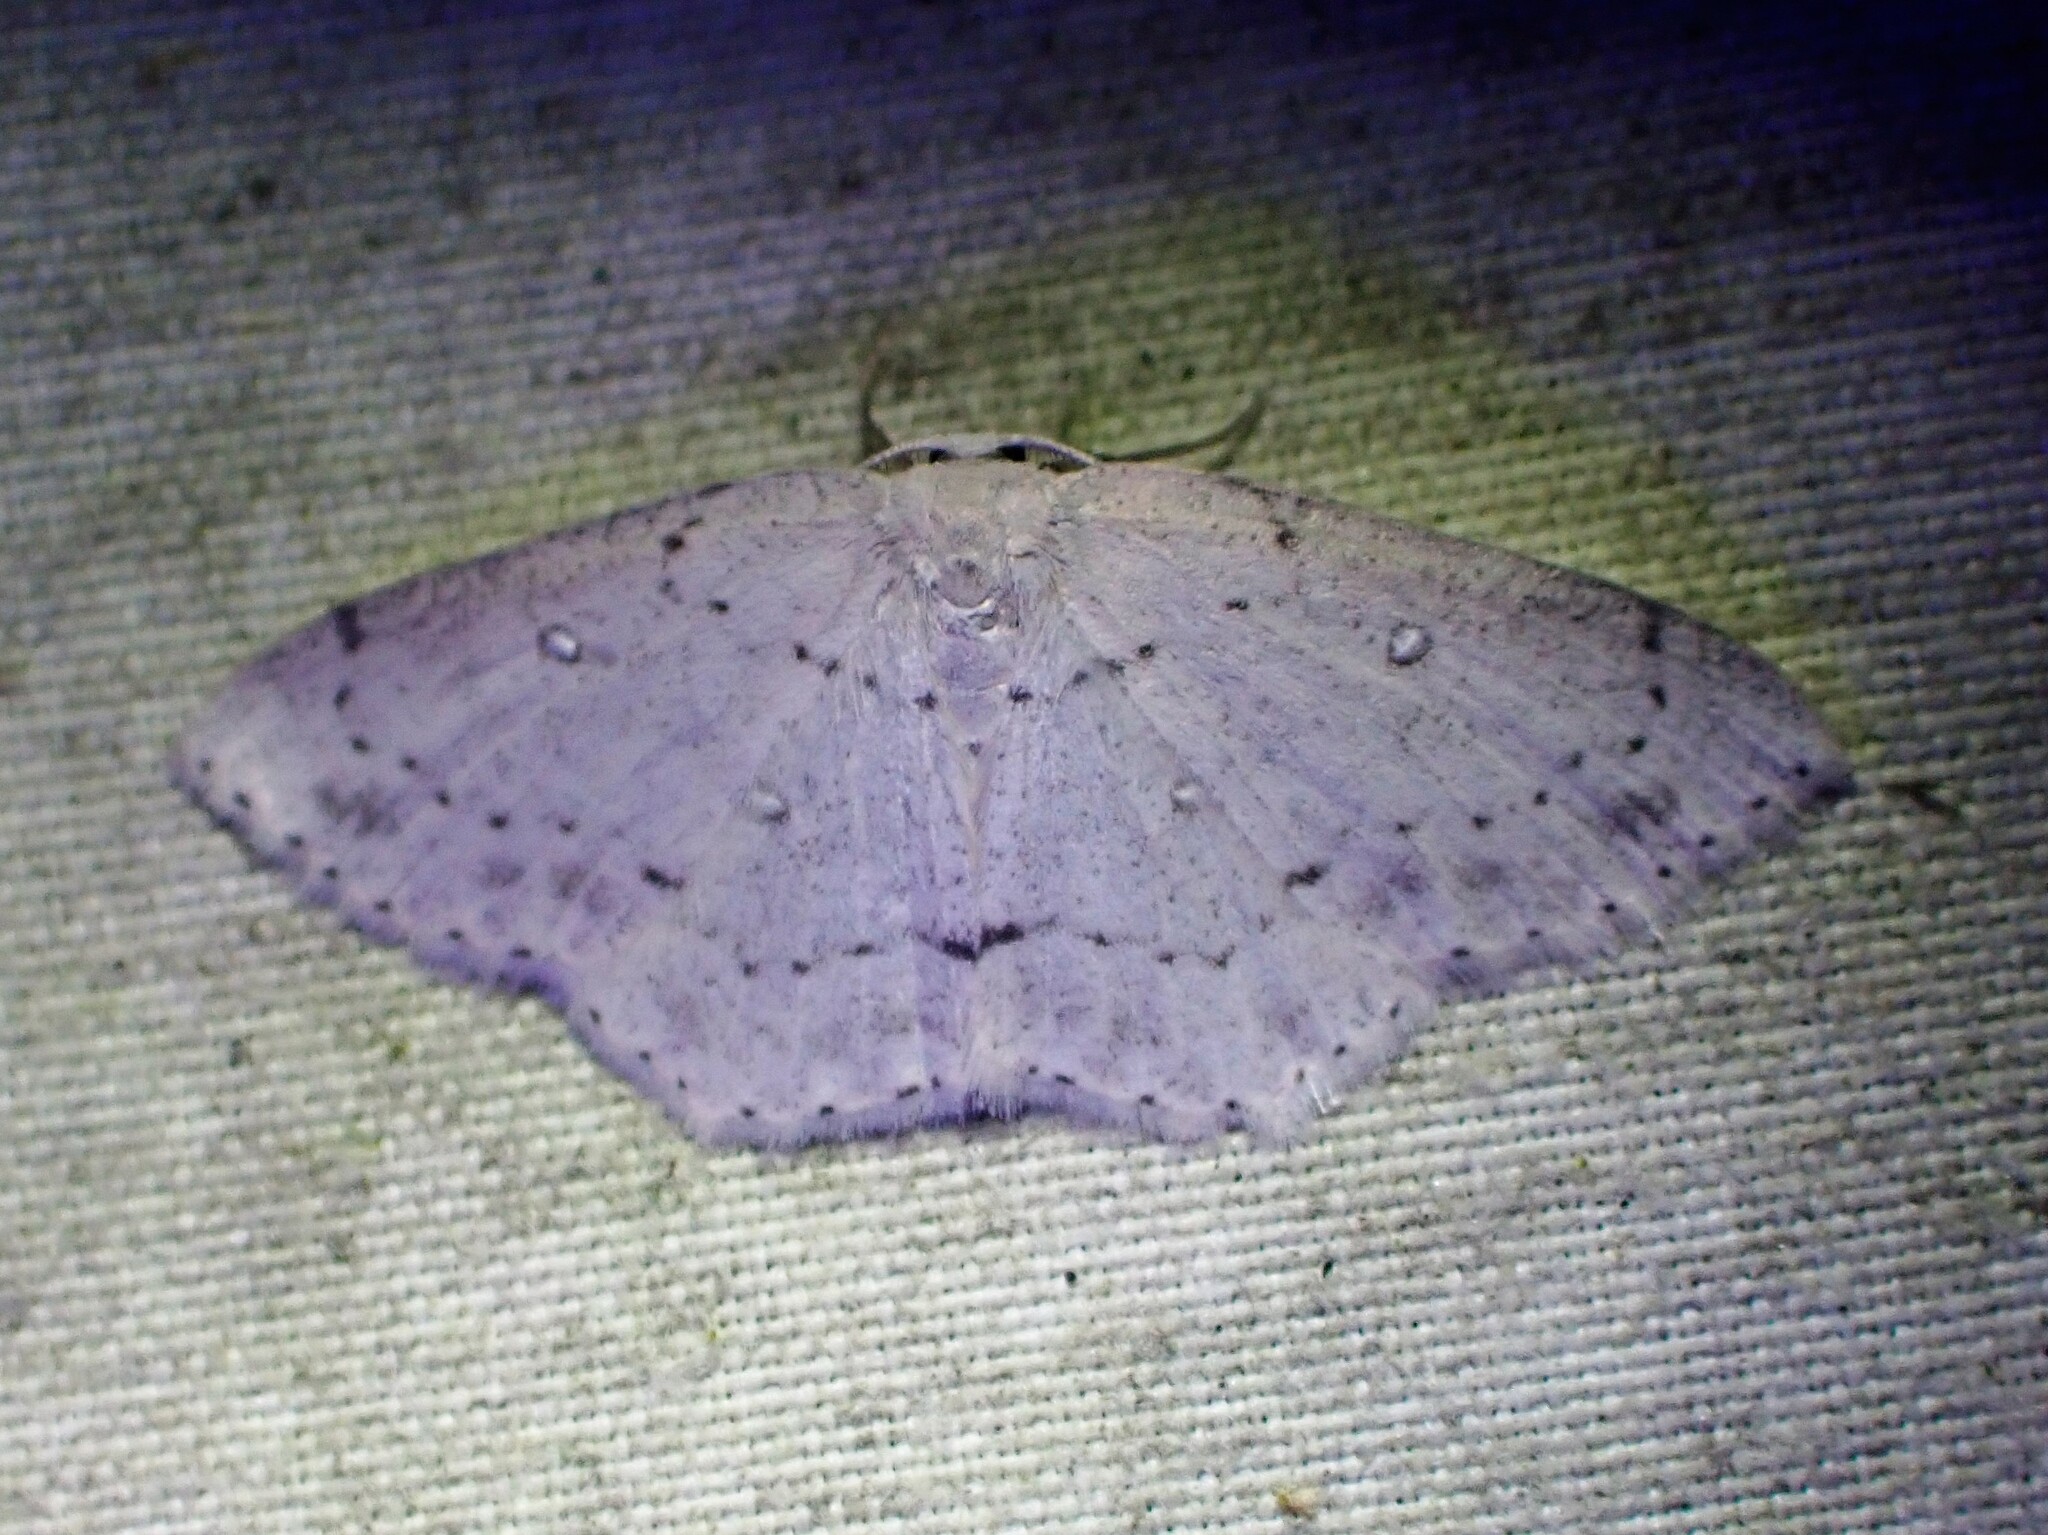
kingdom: Animalia
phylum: Arthropoda
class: Insecta
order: Lepidoptera
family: Geometridae
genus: Cyclophora
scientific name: Cyclophora pendulinaria
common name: Sweet fern geometer
